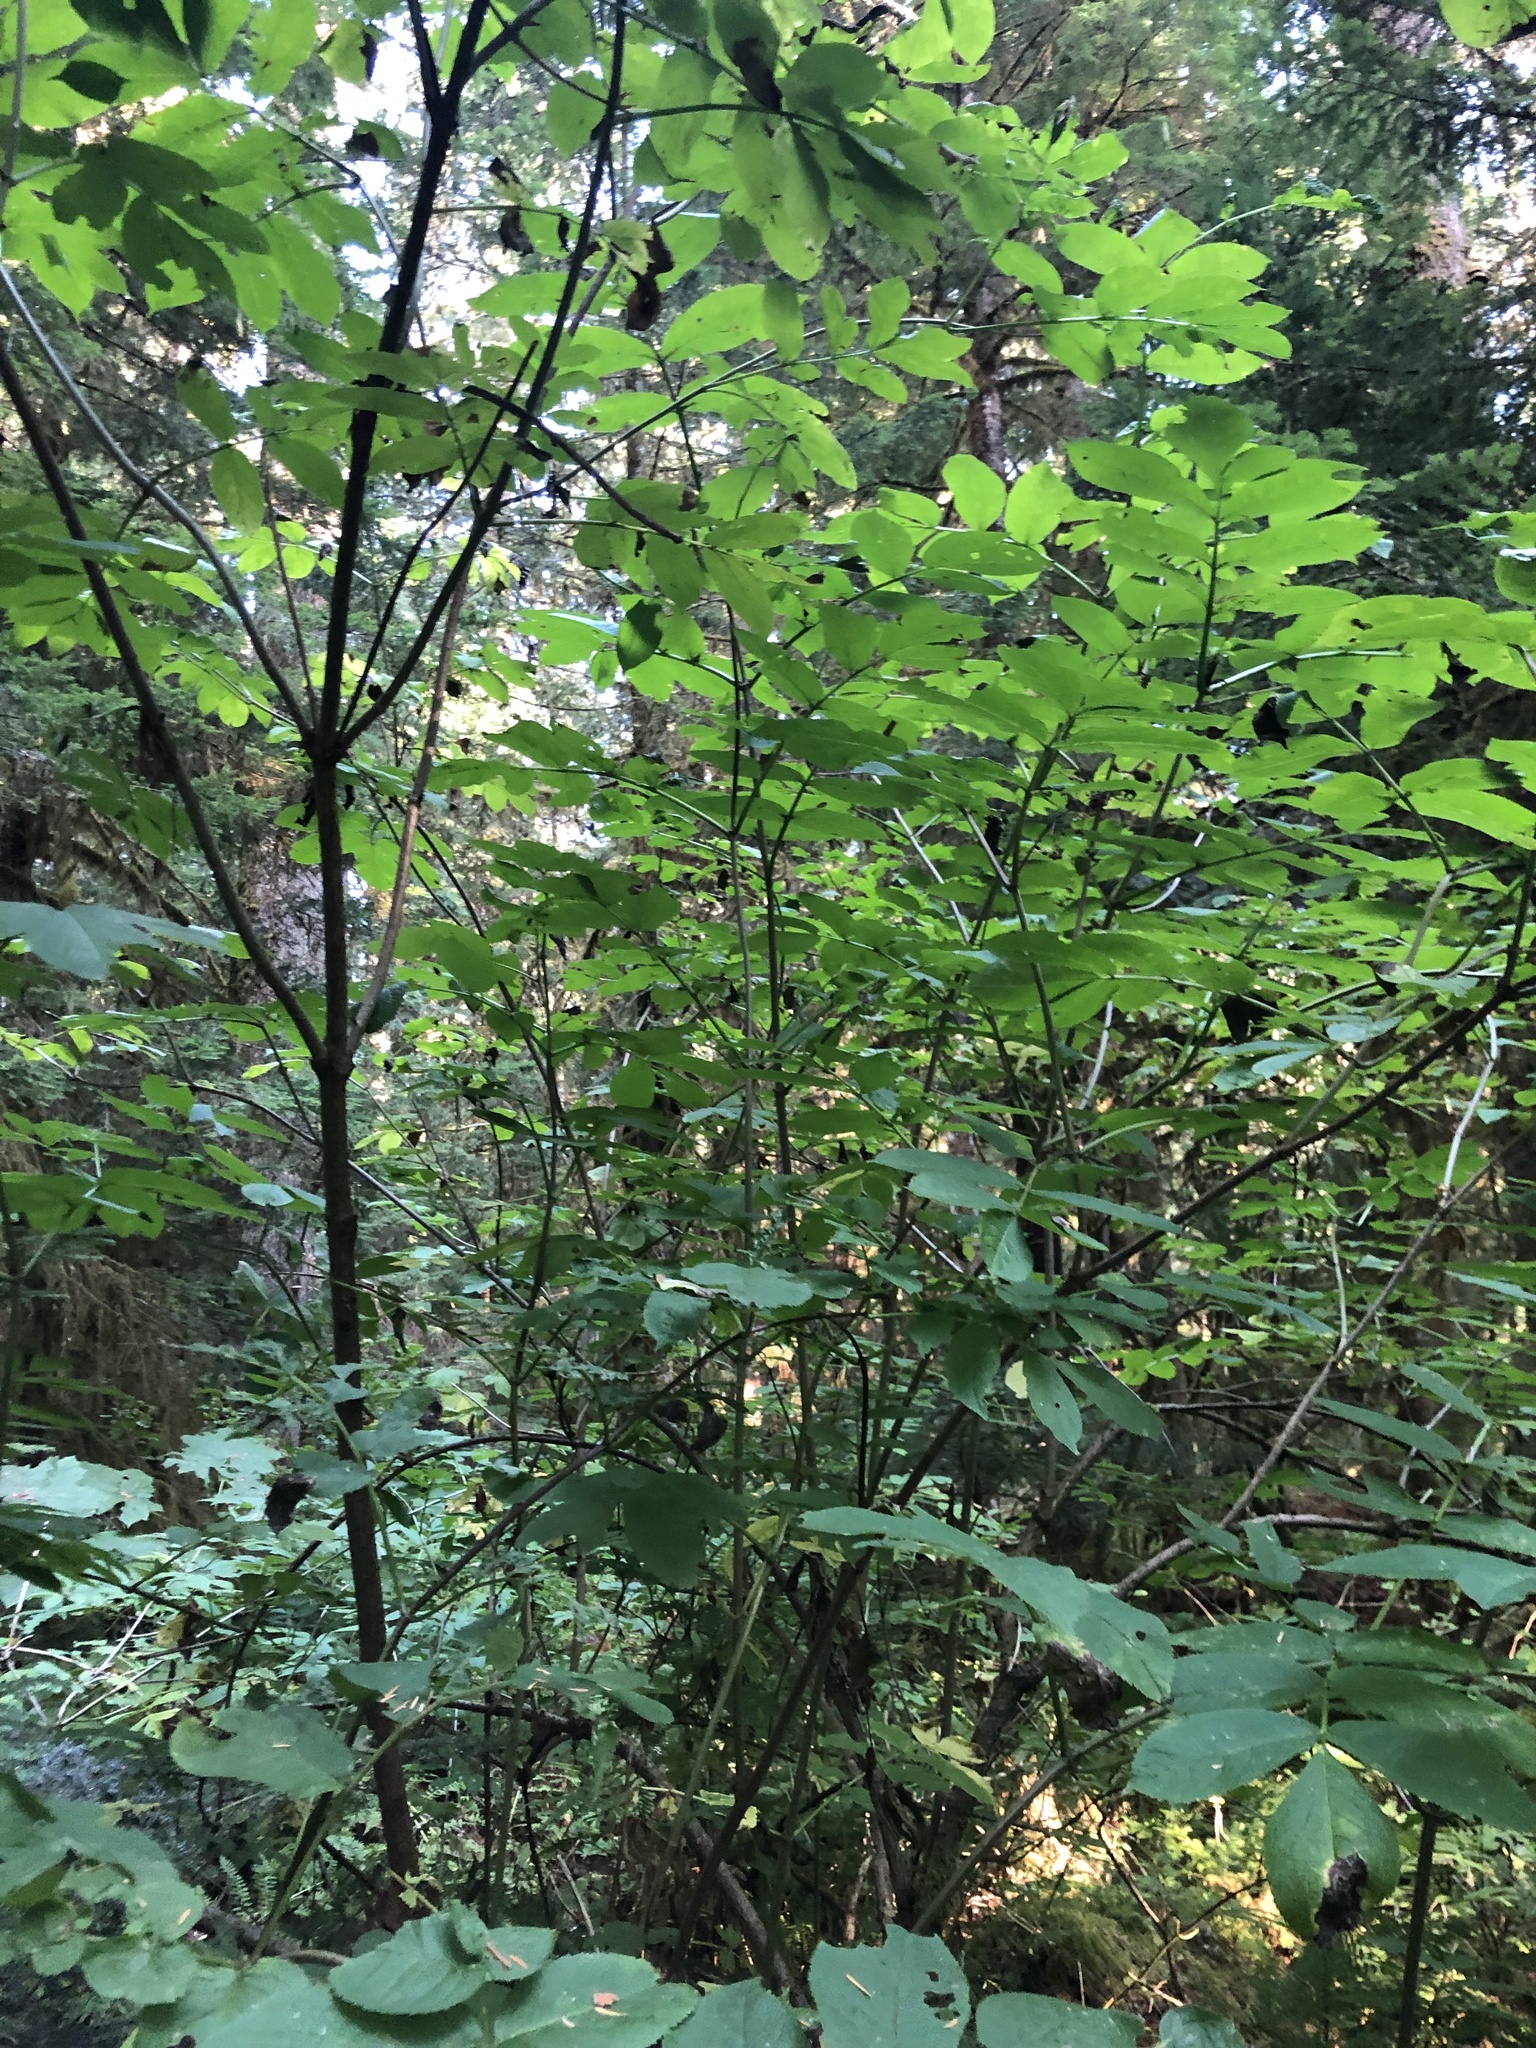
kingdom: Plantae
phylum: Tracheophyta
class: Magnoliopsida
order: Dipsacales
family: Viburnaceae
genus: Sambucus
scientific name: Sambucus racemosa
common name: Red-berried elder
